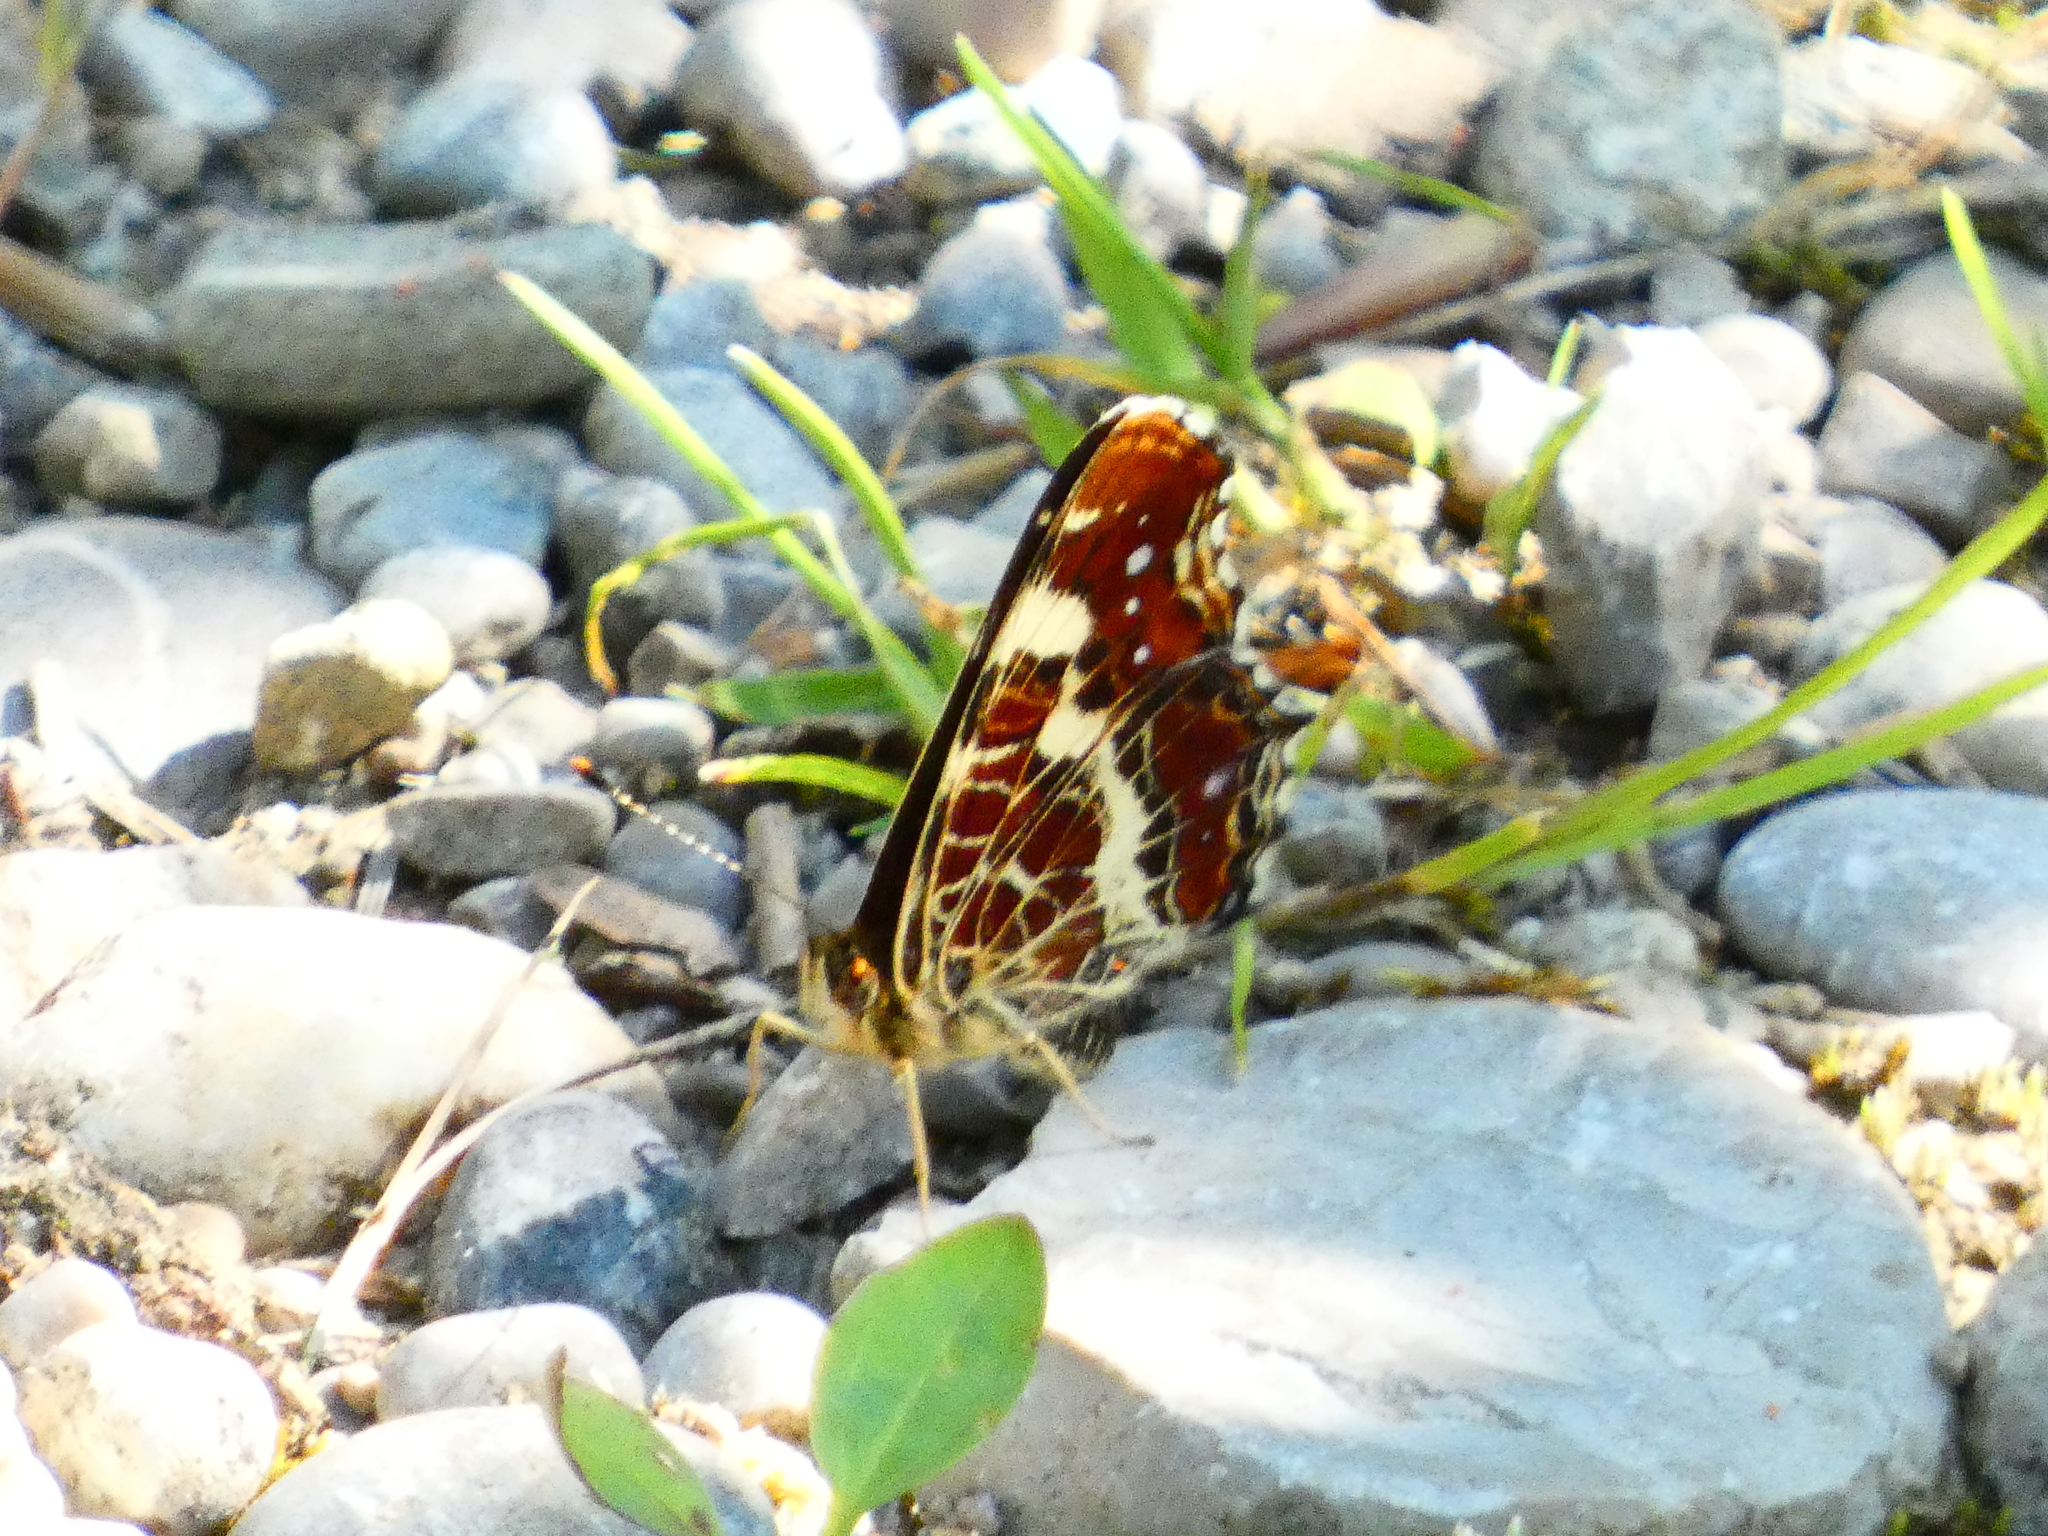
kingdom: Animalia
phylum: Arthropoda
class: Insecta
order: Lepidoptera
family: Nymphalidae
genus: Araschnia
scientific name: Araschnia levana
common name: Map butterfly
